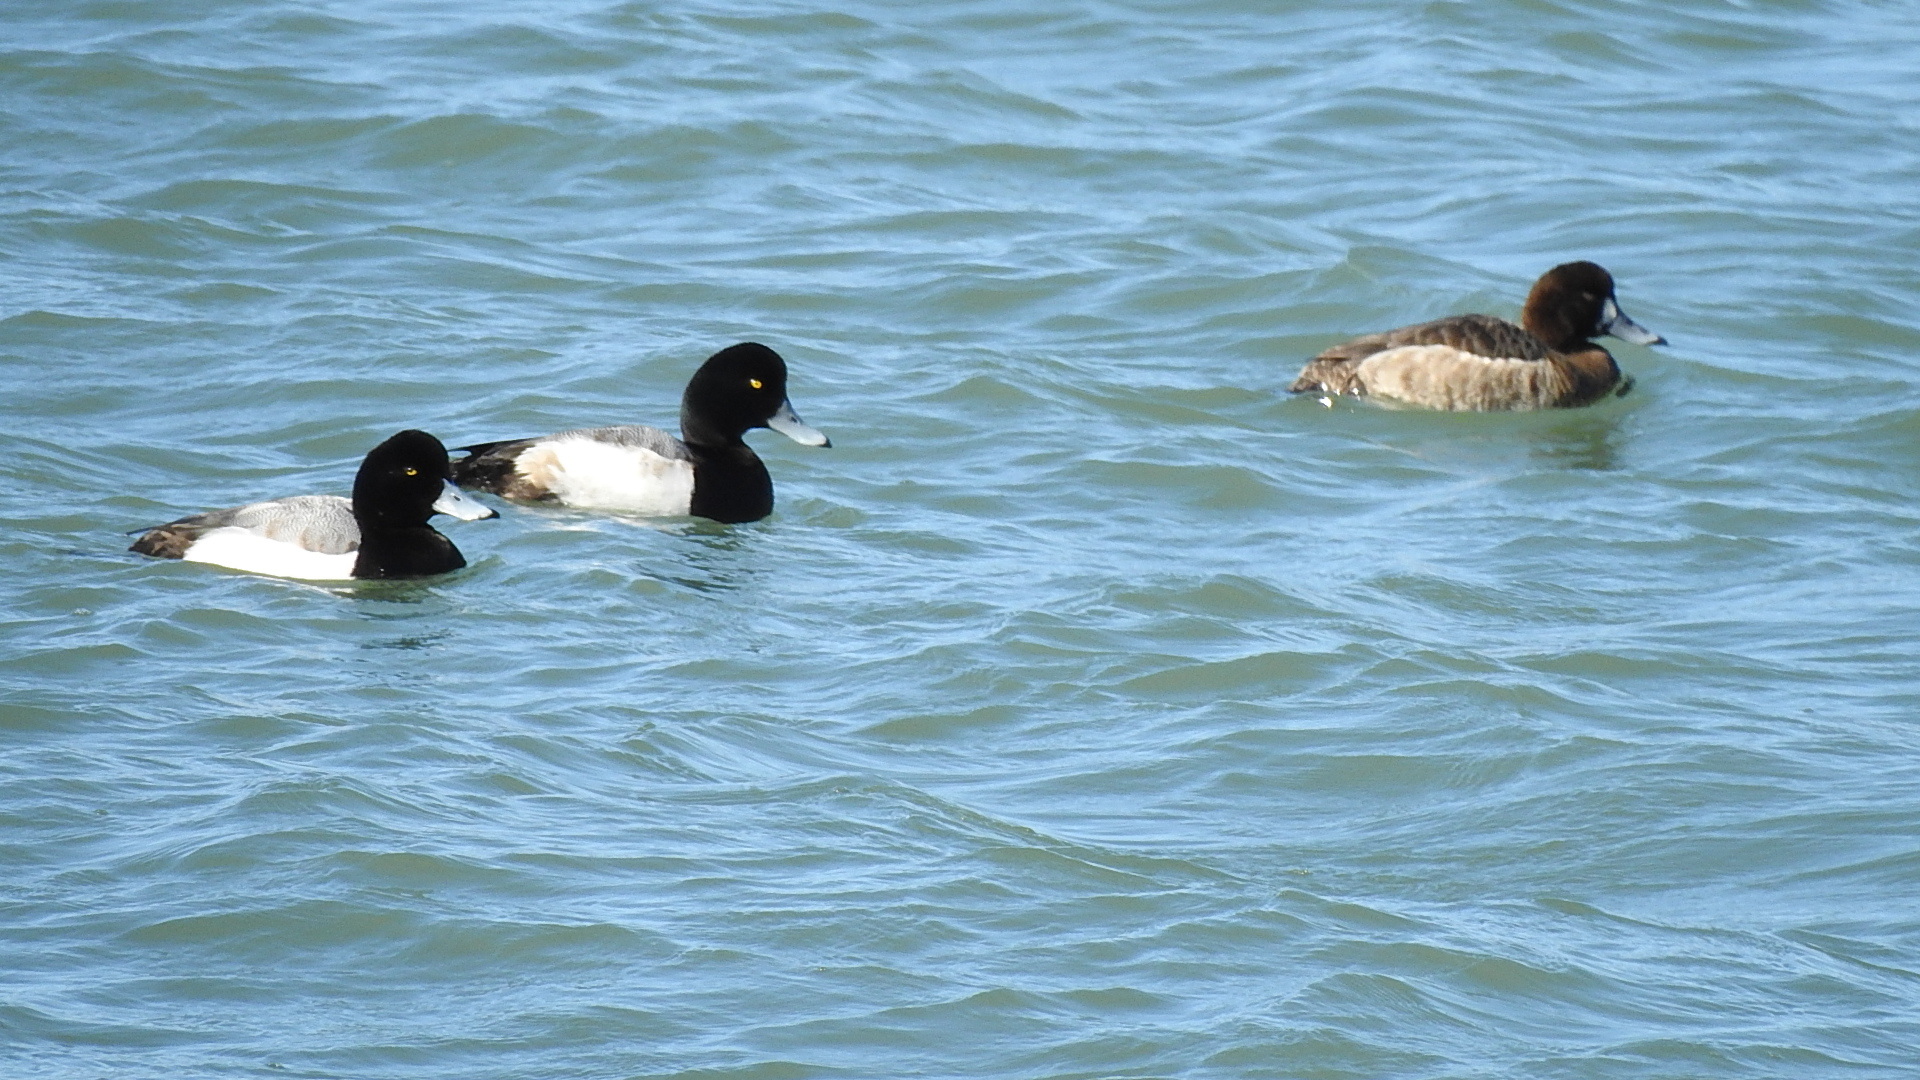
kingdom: Animalia
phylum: Chordata
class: Aves
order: Anseriformes
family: Anatidae
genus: Aythya
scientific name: Aythya marila
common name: Greater scaup
